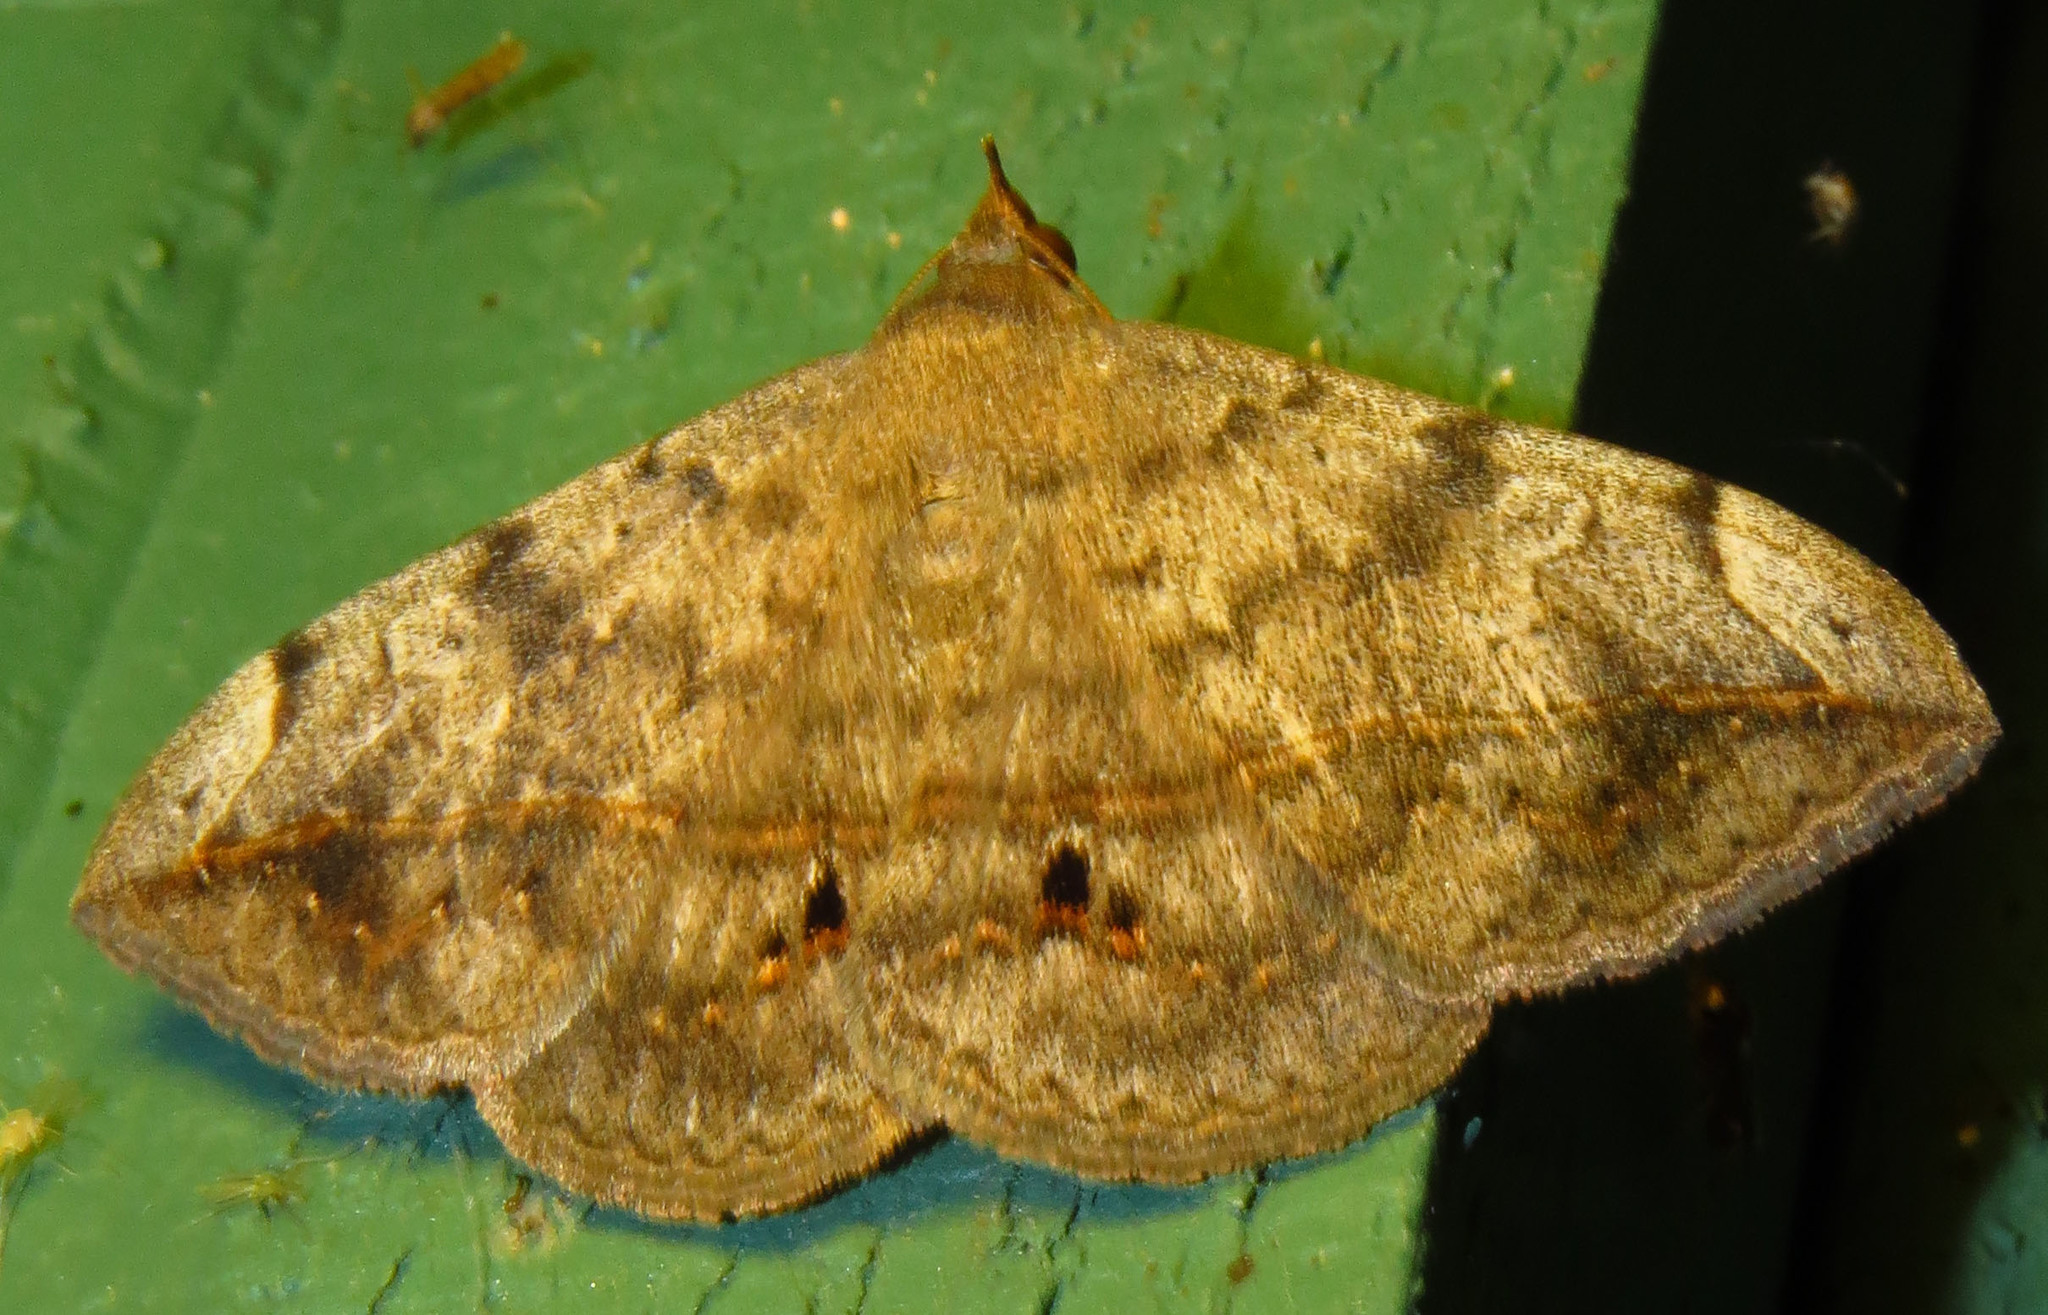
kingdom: Animalia
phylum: Arthropoda
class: Insecta
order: Lepidoptera
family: Erebidae
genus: Anticarsia
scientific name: Anticarsia gemmatalis
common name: Cutworm moth
